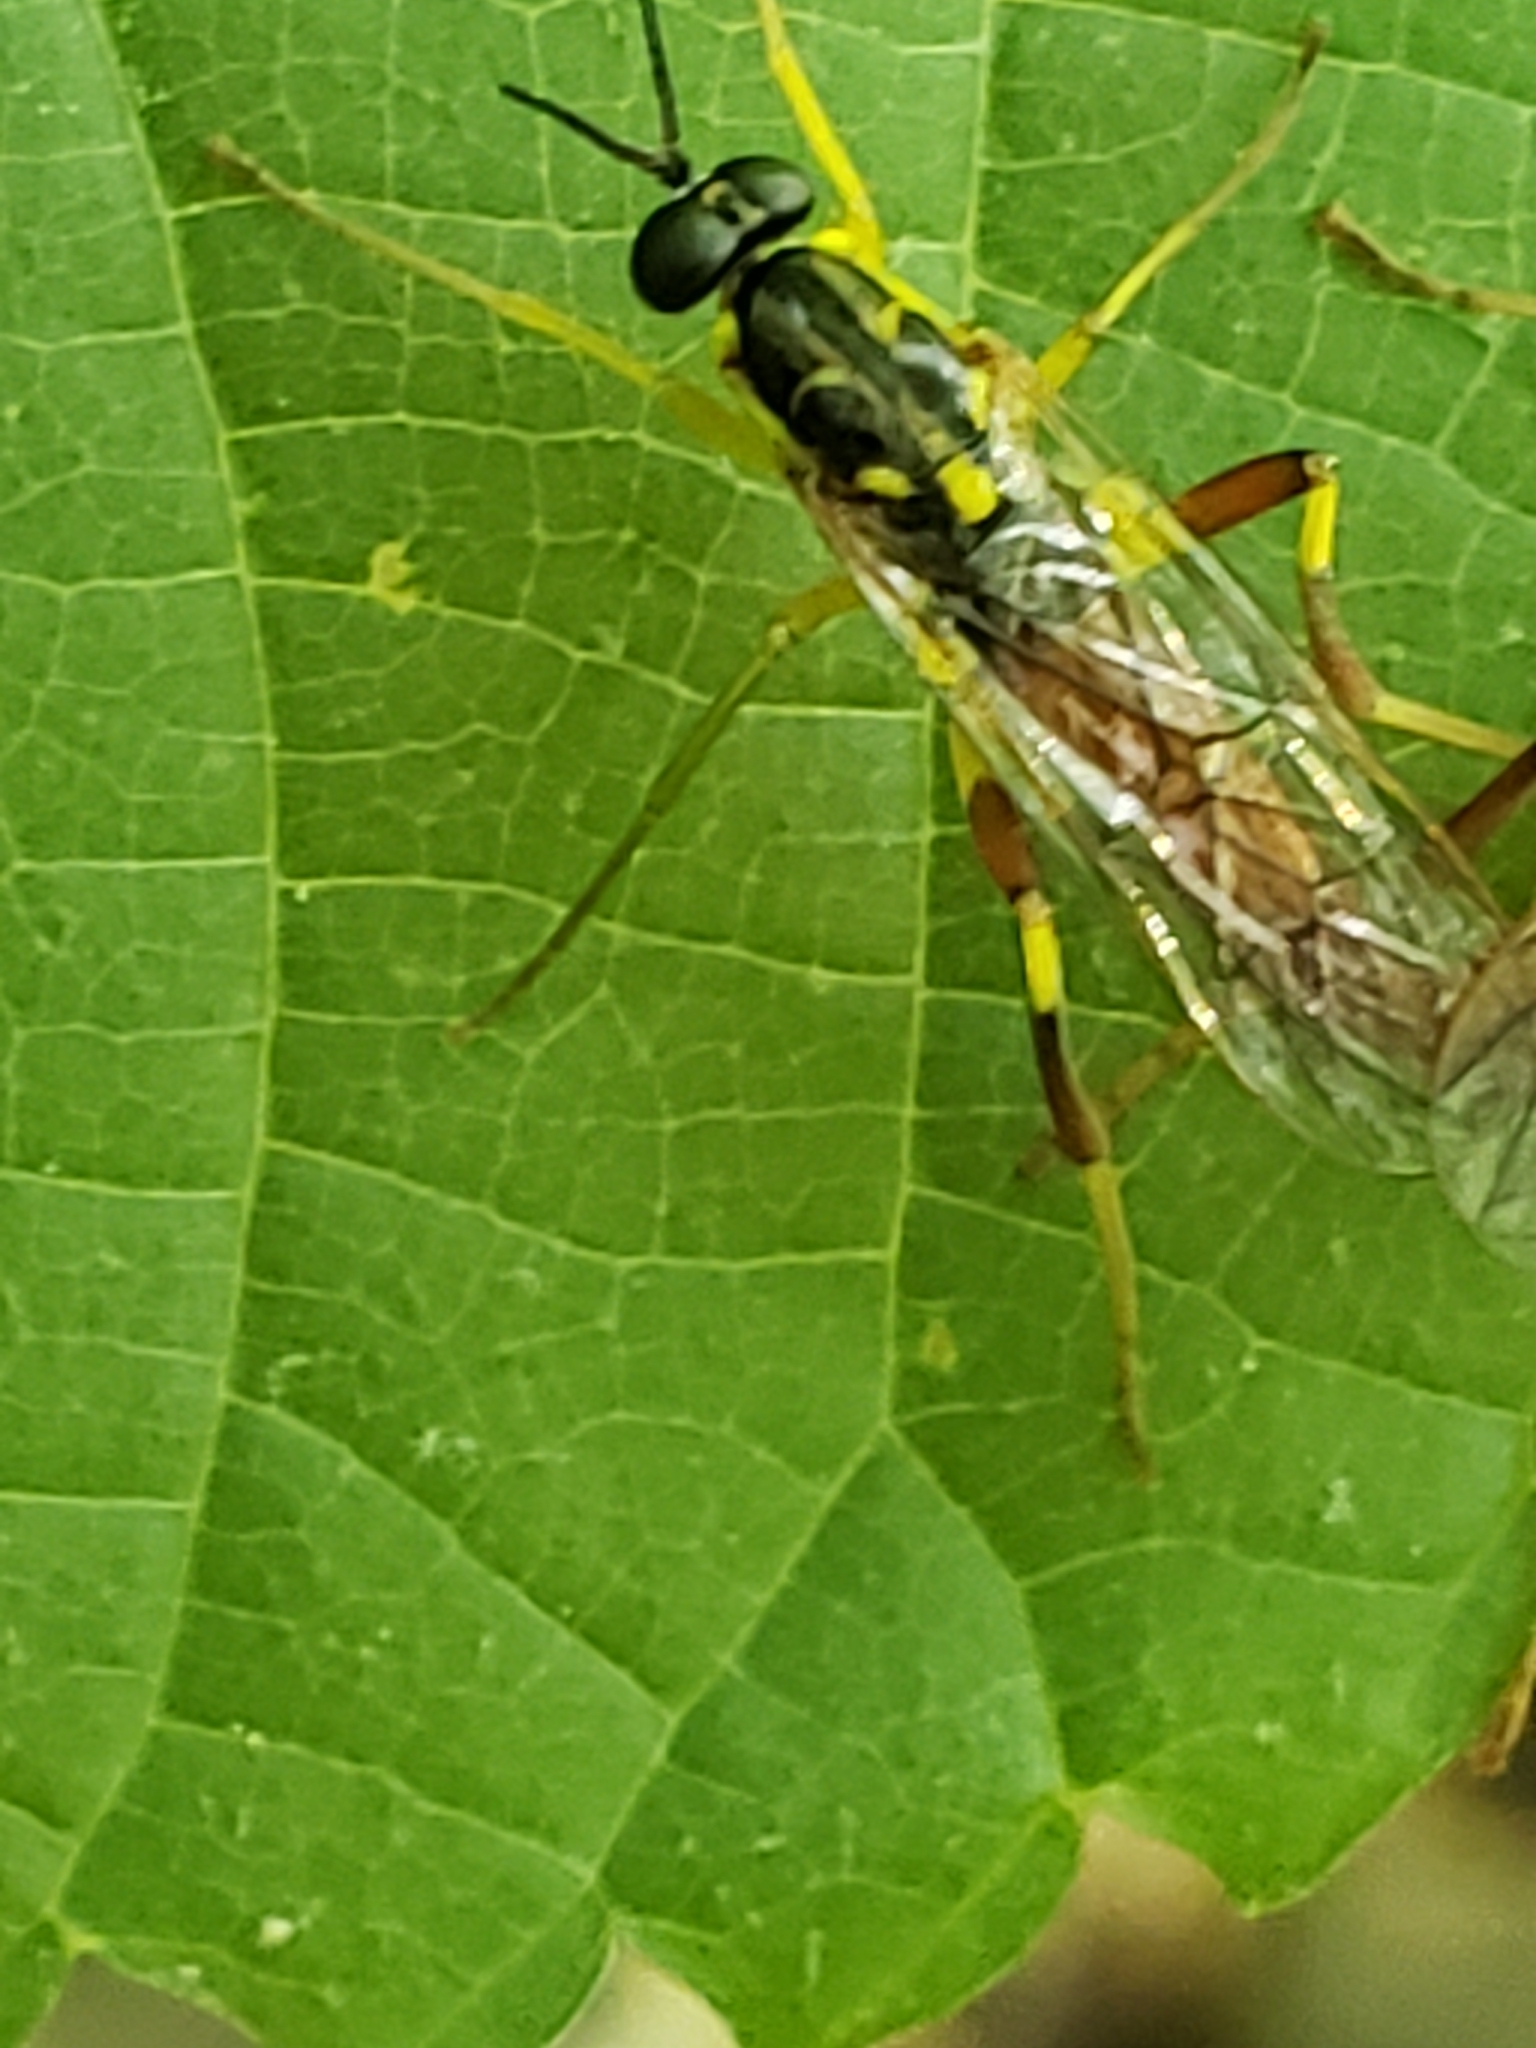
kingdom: Animalia
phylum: Arthropoda
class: Insecta
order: Diptera
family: Xylomyidae
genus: Xylomya
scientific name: Xylomya simillima
